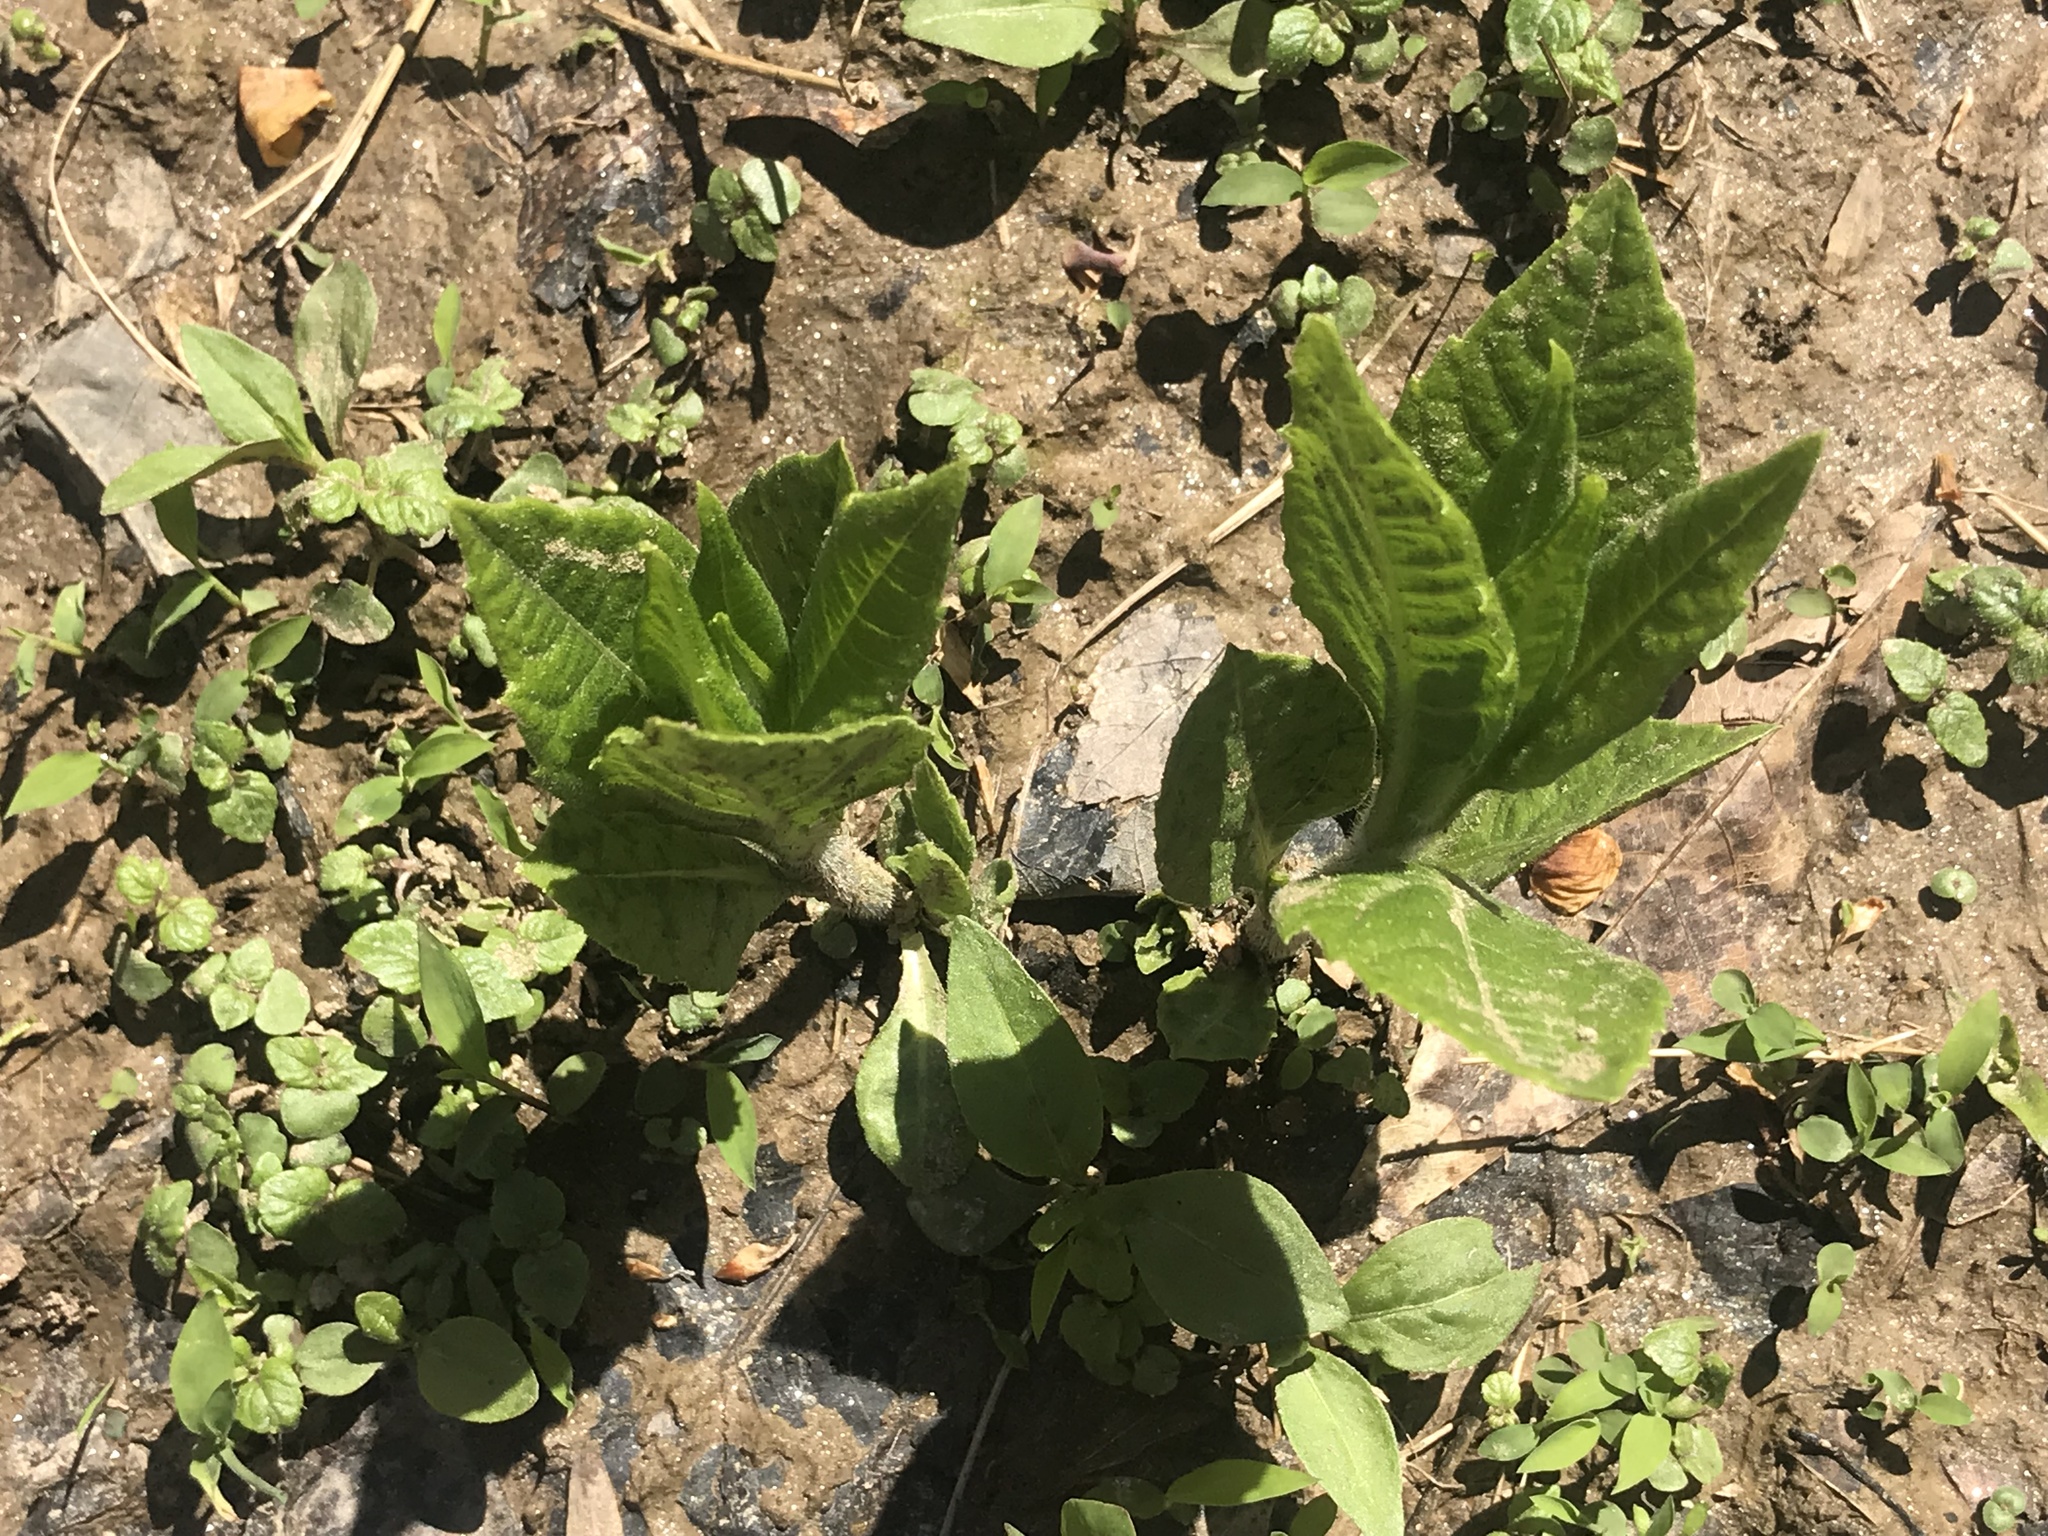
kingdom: Plantae
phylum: Tracheophyta
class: Magnoliopsida
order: Asterales
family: Asteraceae
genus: Verbesina
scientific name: Verbesina alternifolia
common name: Wingstem
